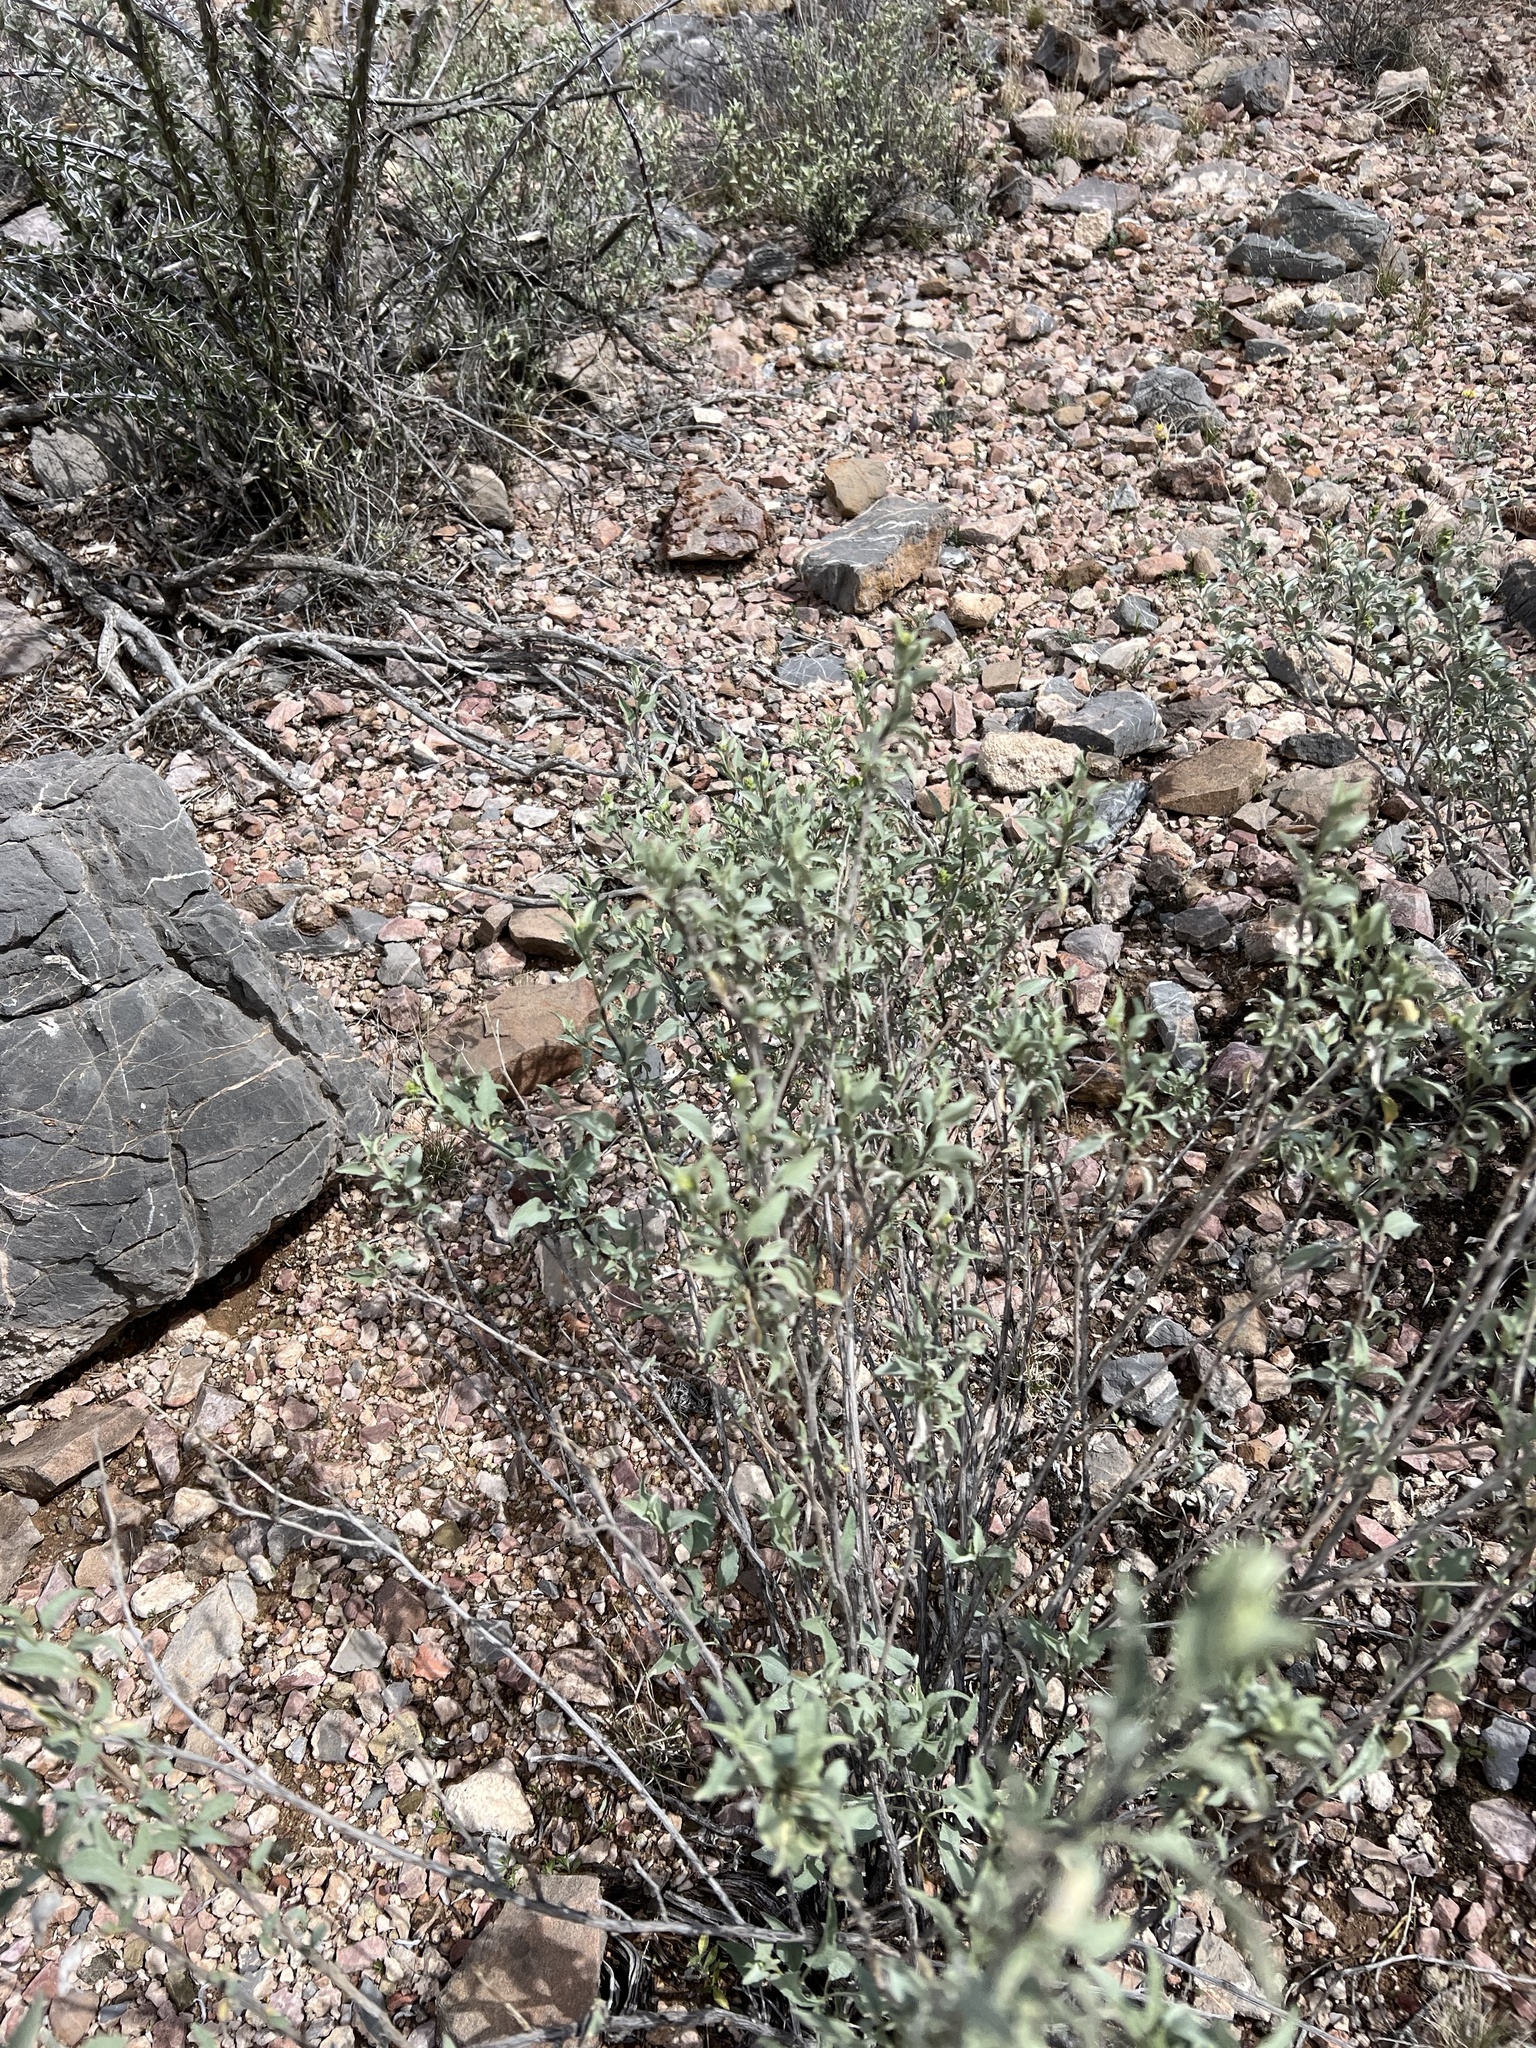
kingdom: Plantae
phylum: Tracheophyta
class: Magnoliopsida
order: Asterales
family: Asteraceae
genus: Ambrosia
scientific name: Ambrosia deltoidea
